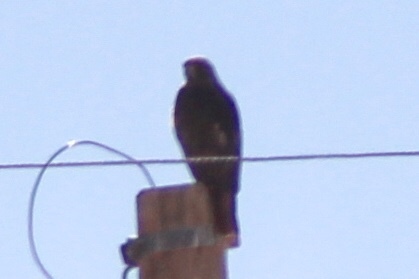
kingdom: Animalia
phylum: Chordata
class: Aves
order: Accipitriformes
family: Accipitridae
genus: Buteo
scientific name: Buteo jamaicensis
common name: Red-tailed hawk
